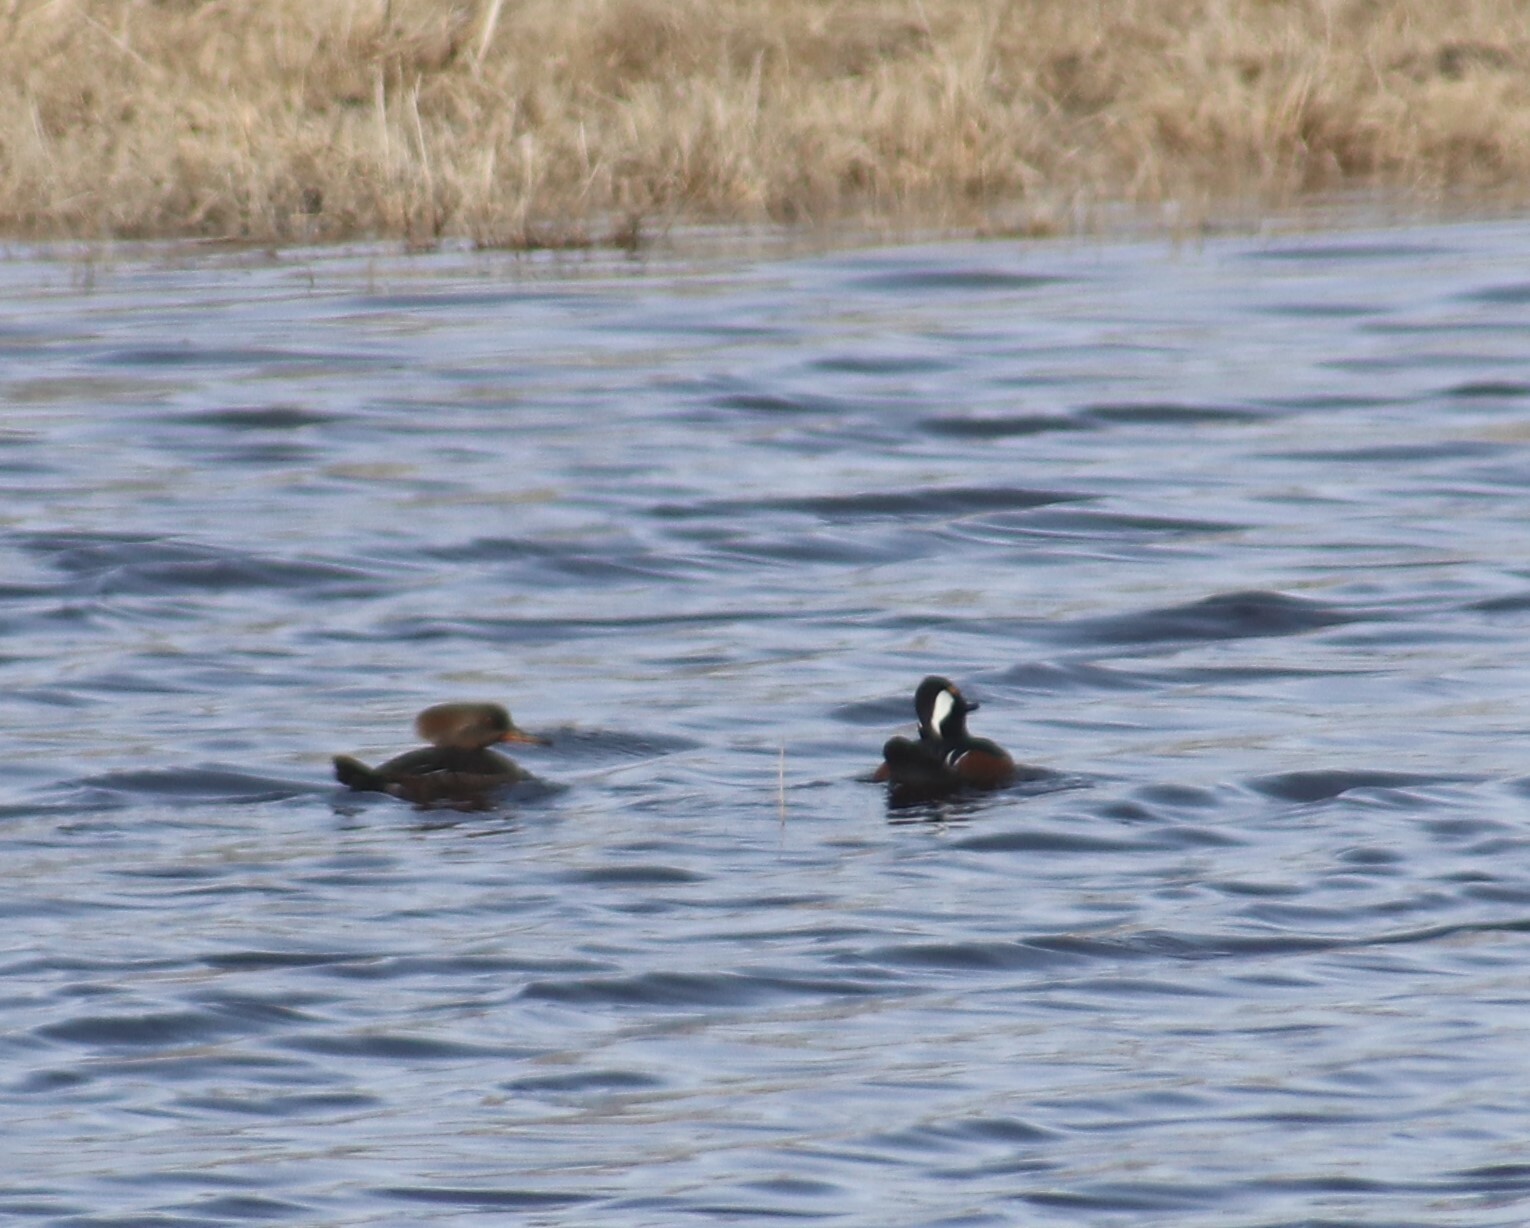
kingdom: Animalia
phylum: Chordata
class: Aves
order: Anseriformes
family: Anatidae
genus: Lophodytes
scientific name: Lophodytes cucullatus
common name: Hooded merganser
